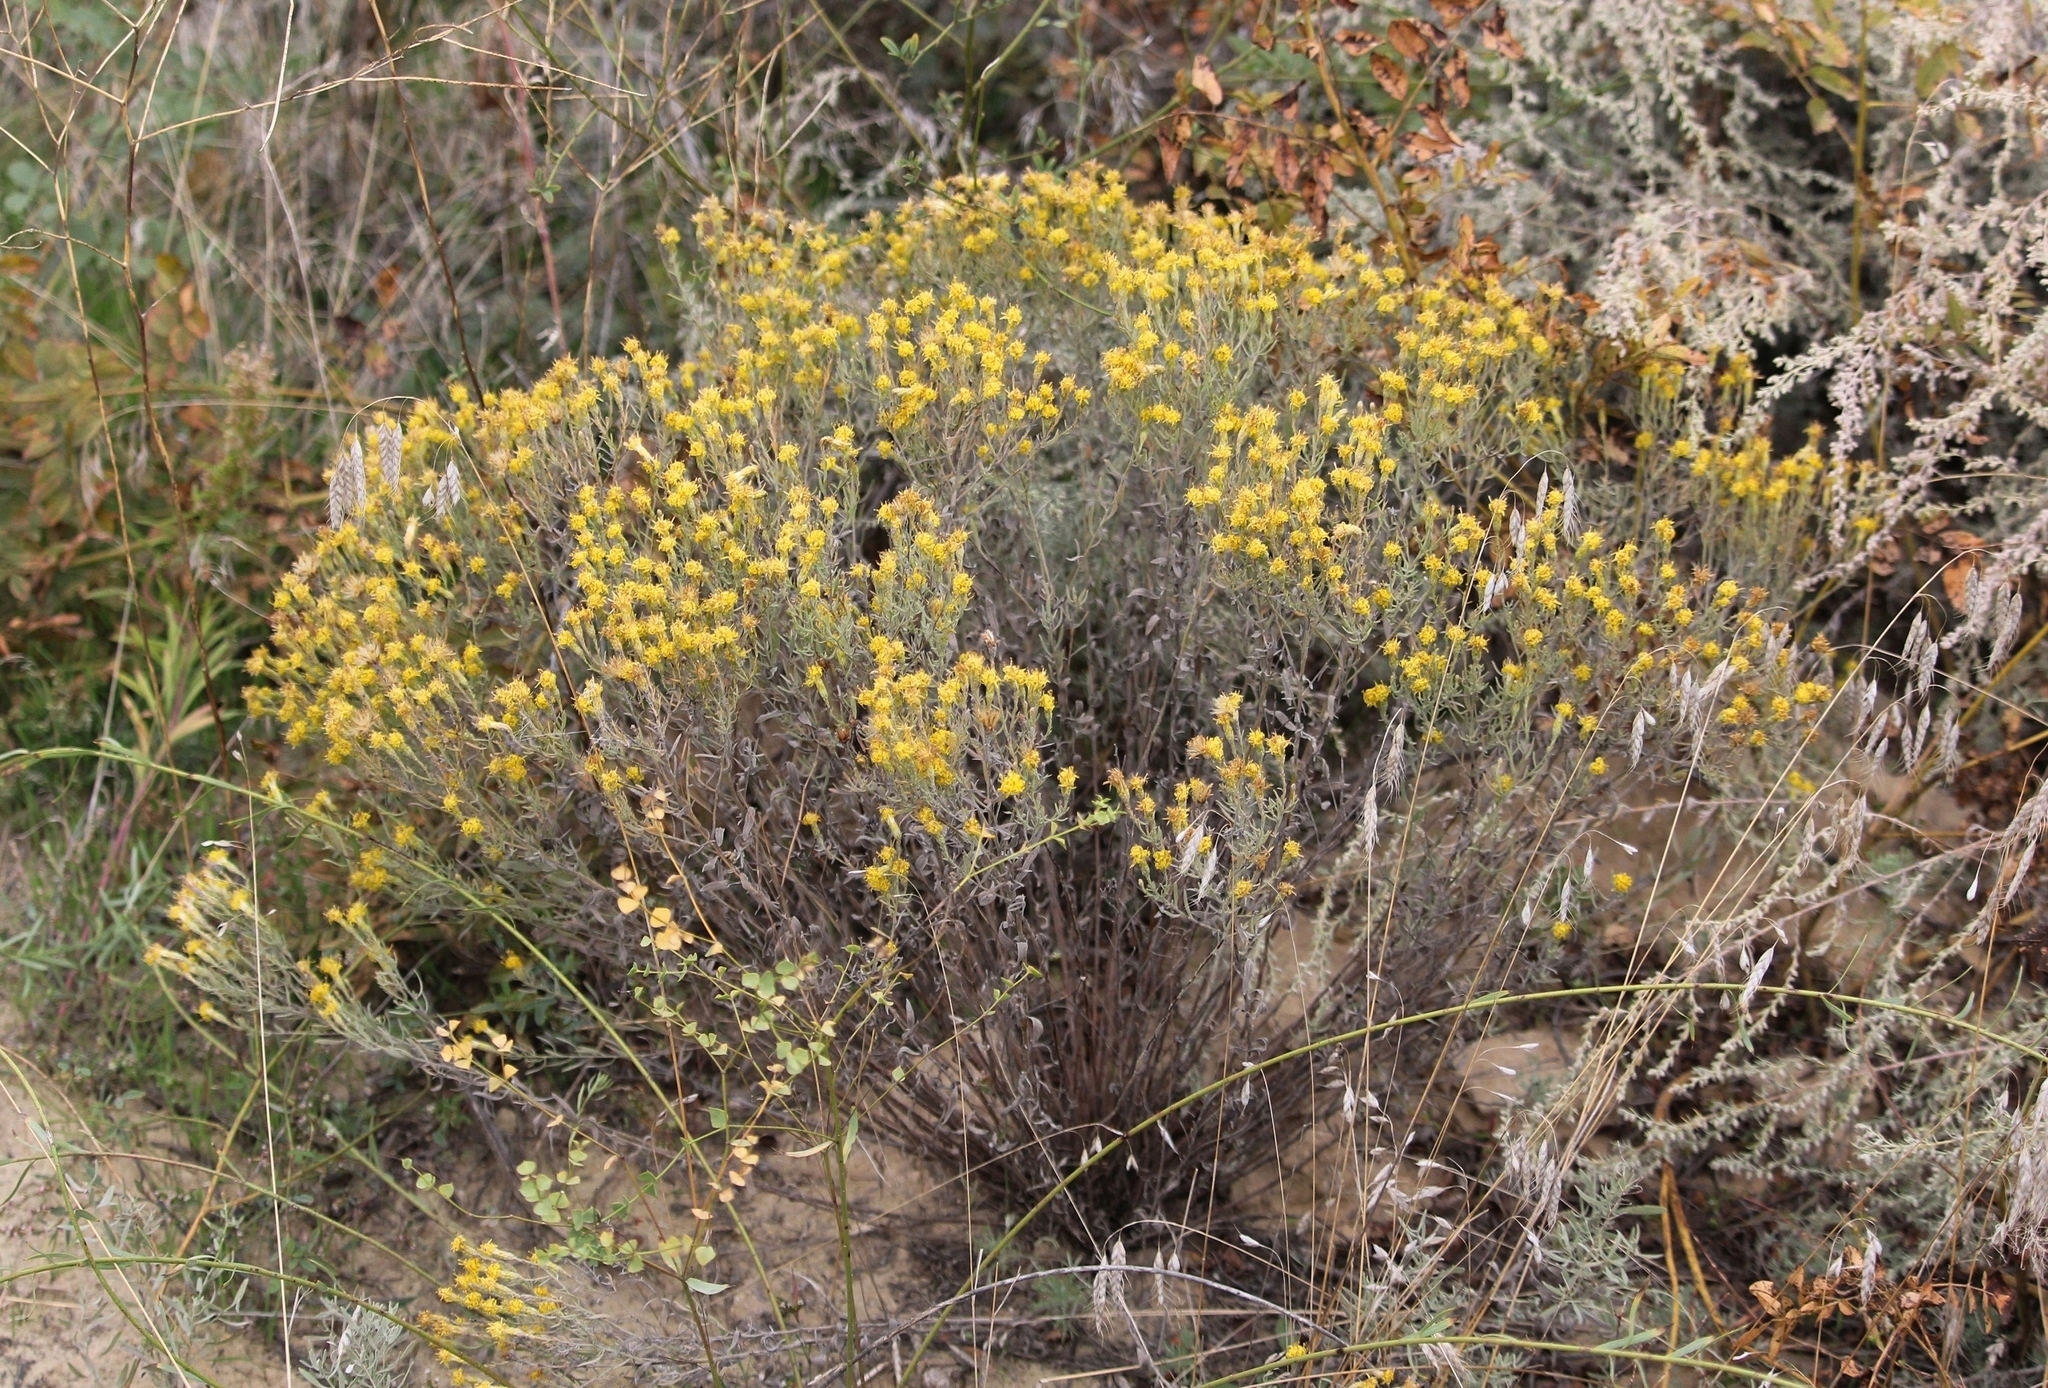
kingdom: Plantae
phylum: Tracheophyta
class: Magnoliopsida
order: Asterales
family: Asteraceae
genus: Galatella
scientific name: Galatella villosa
